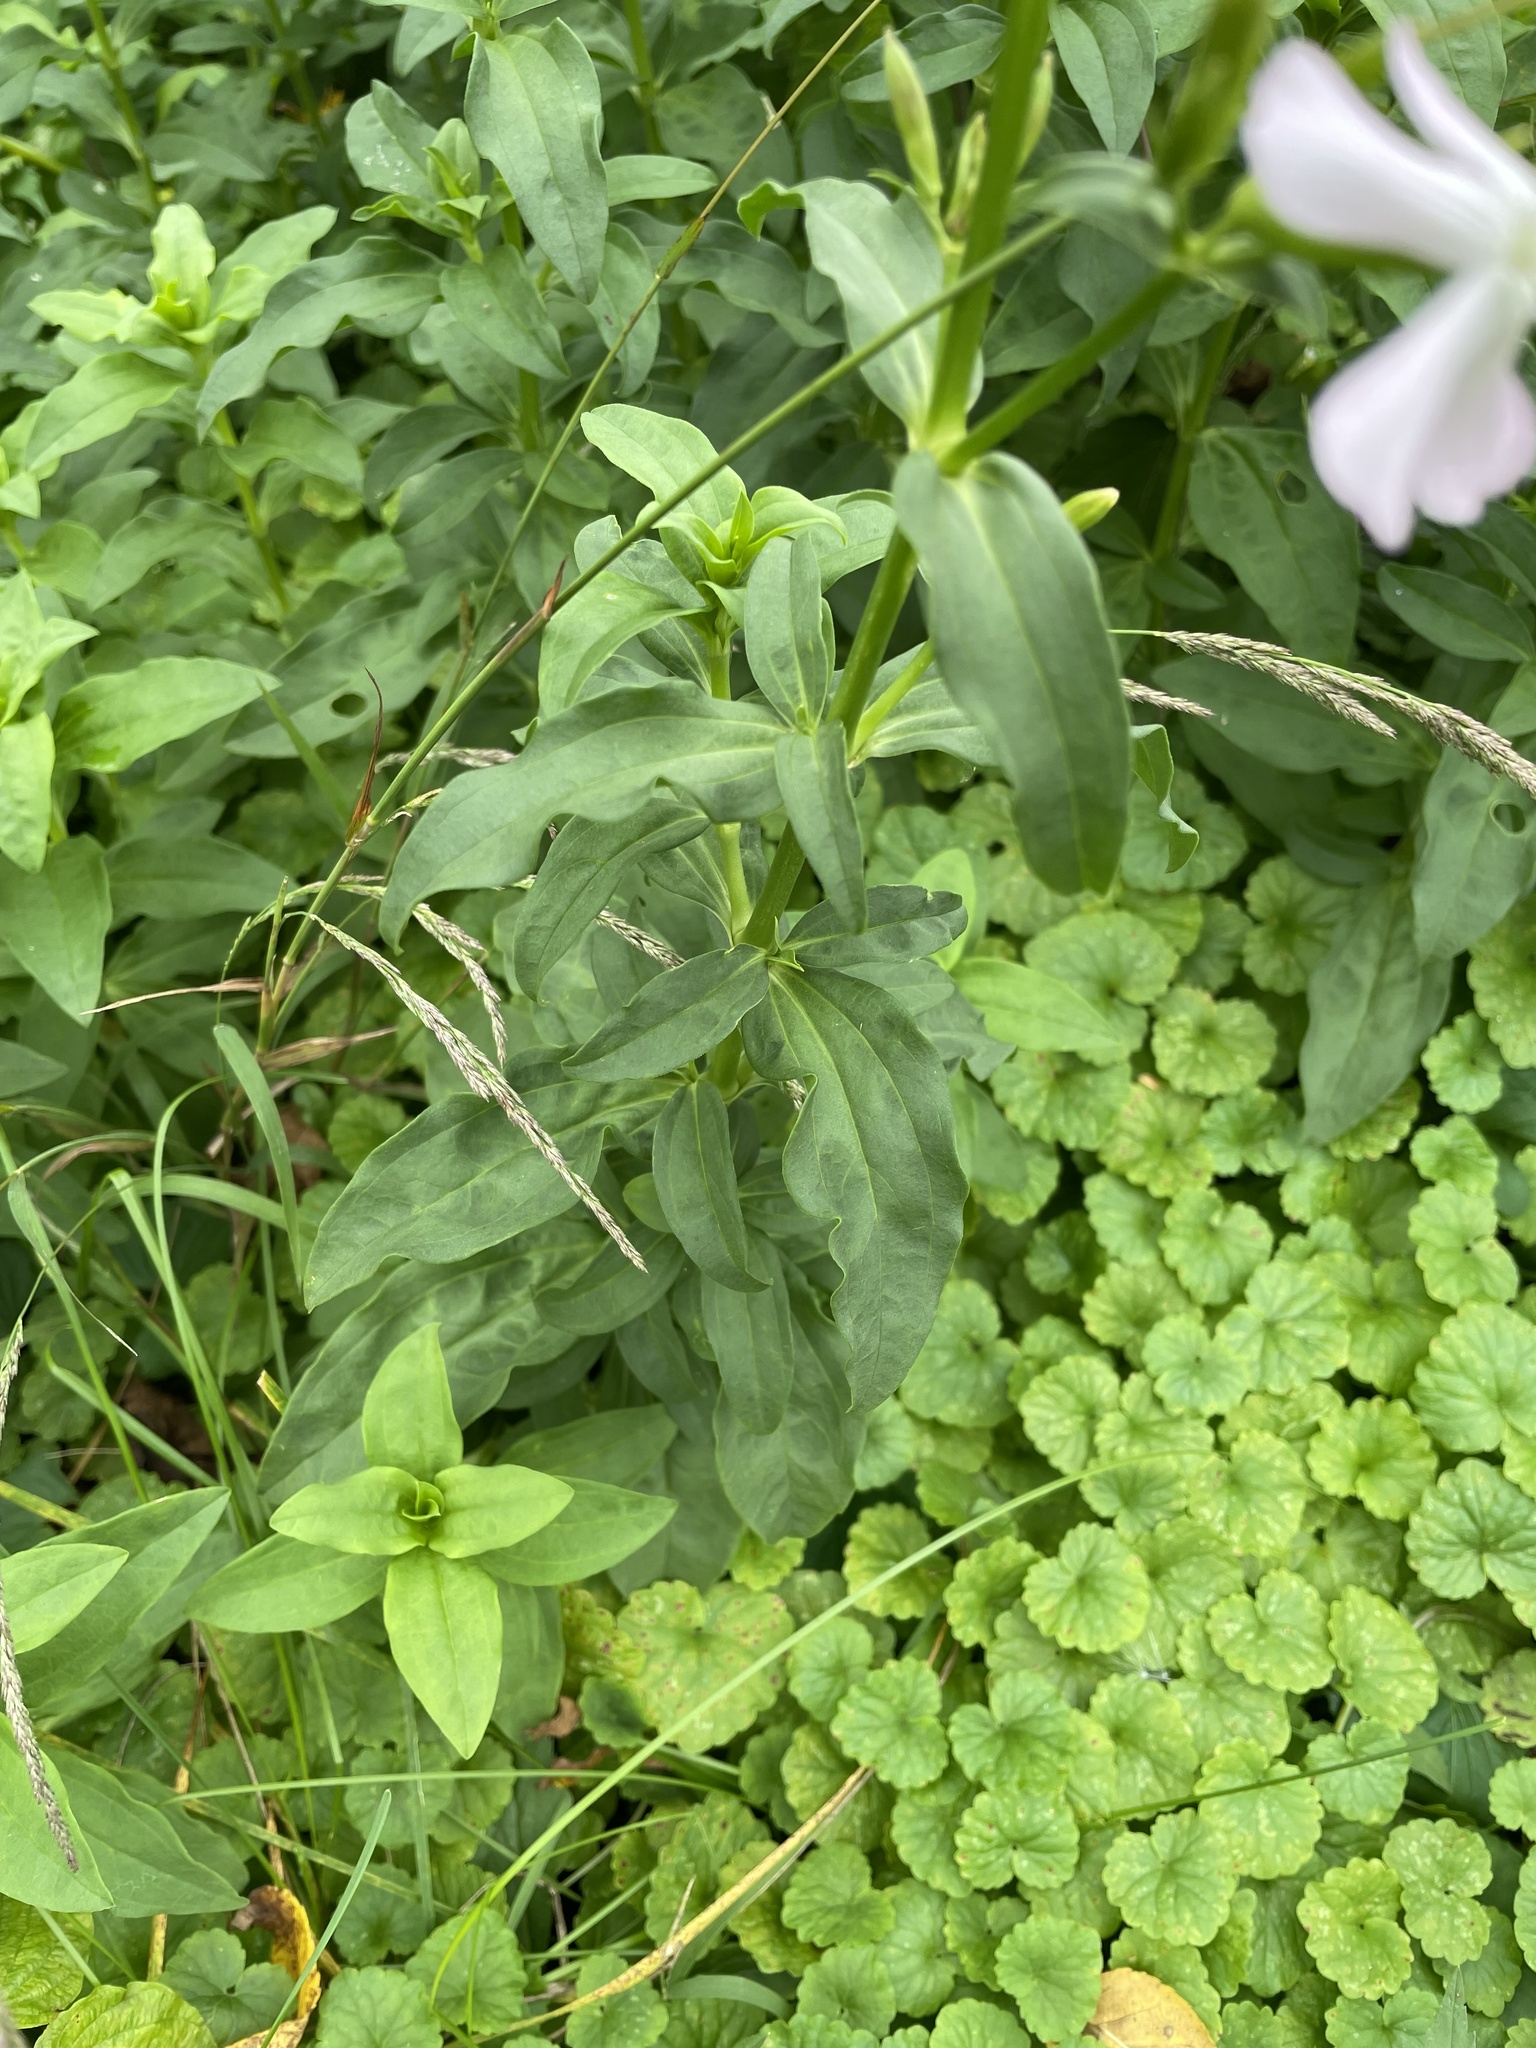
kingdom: Plantae
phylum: Tracheophyta
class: Magnoliopsida
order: Caryophyllales
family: Caryophyllaceae
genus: Saponaria
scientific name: Saponaria officinalis
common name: Soapwort
